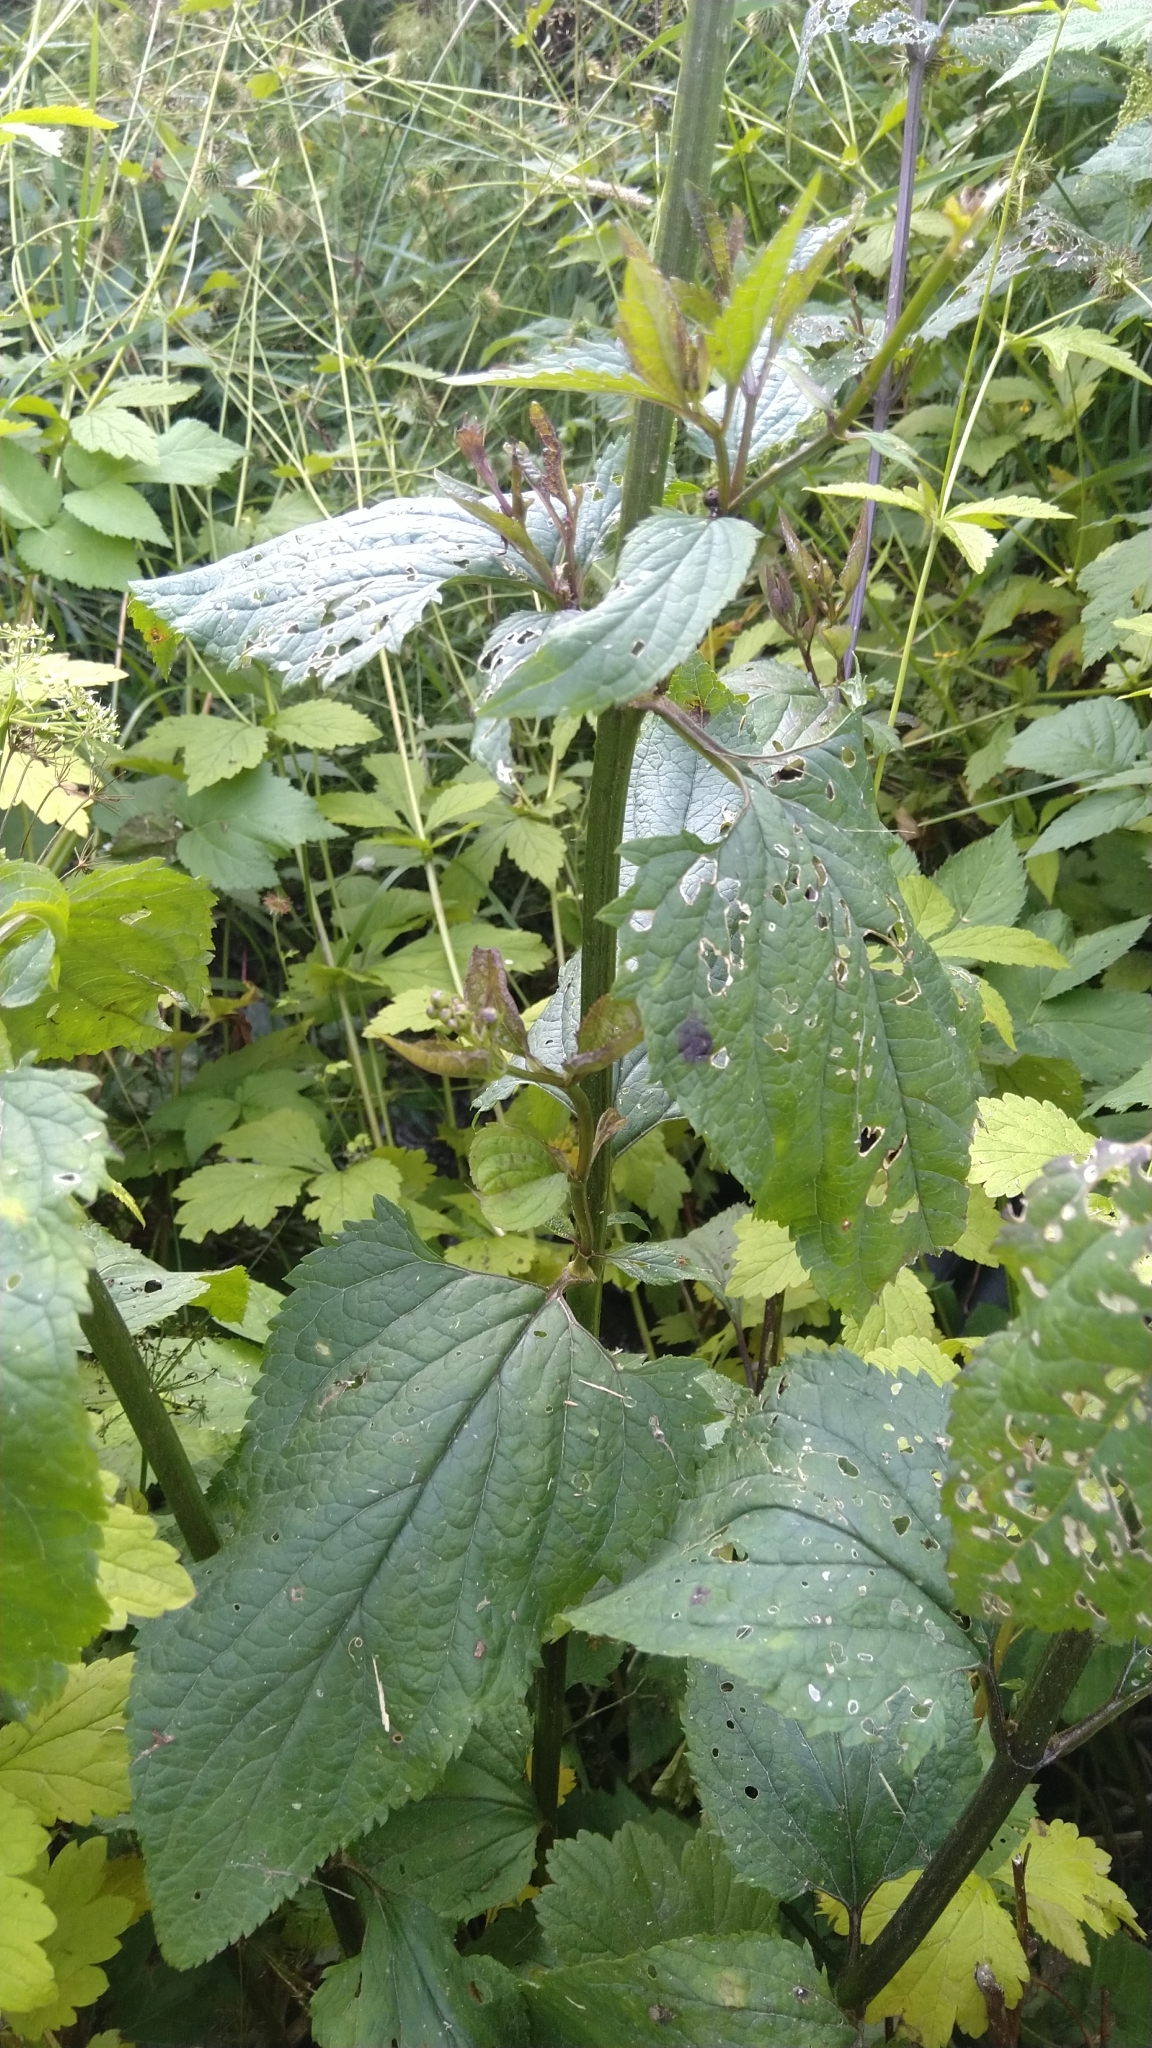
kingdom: Plantae
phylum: Tracheophyta
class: Magnoliopsida
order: Lamiales
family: Scrophulariaceae
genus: Scrophularia
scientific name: Scrophularia nodosa
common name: Common figwort
